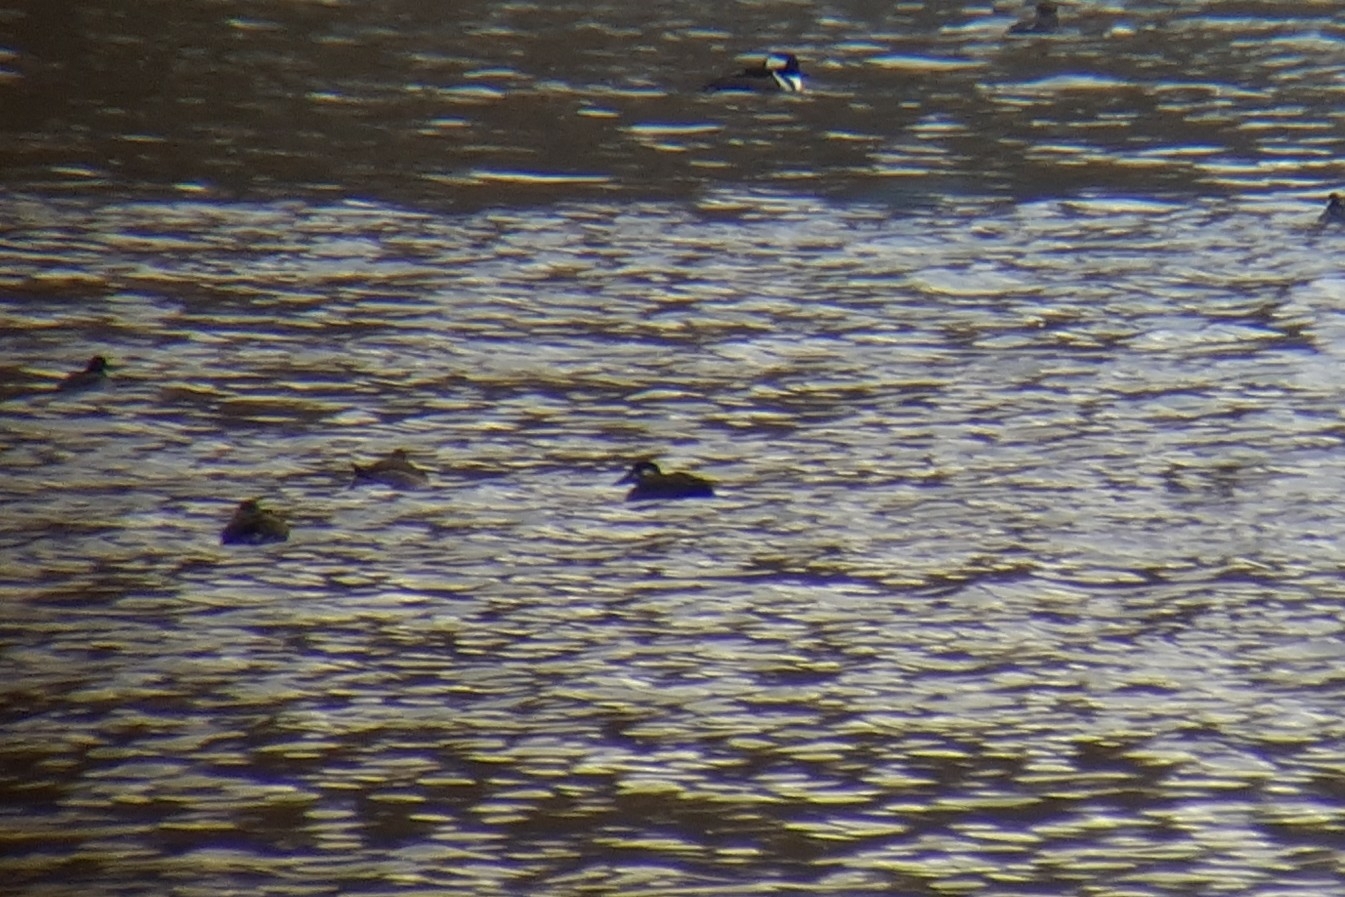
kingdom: Animalia
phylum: Chordata
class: Aves
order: Anseriformes
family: Anatidae
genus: Melanitta
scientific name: Melanitta perspicillata
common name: Surf scoter
